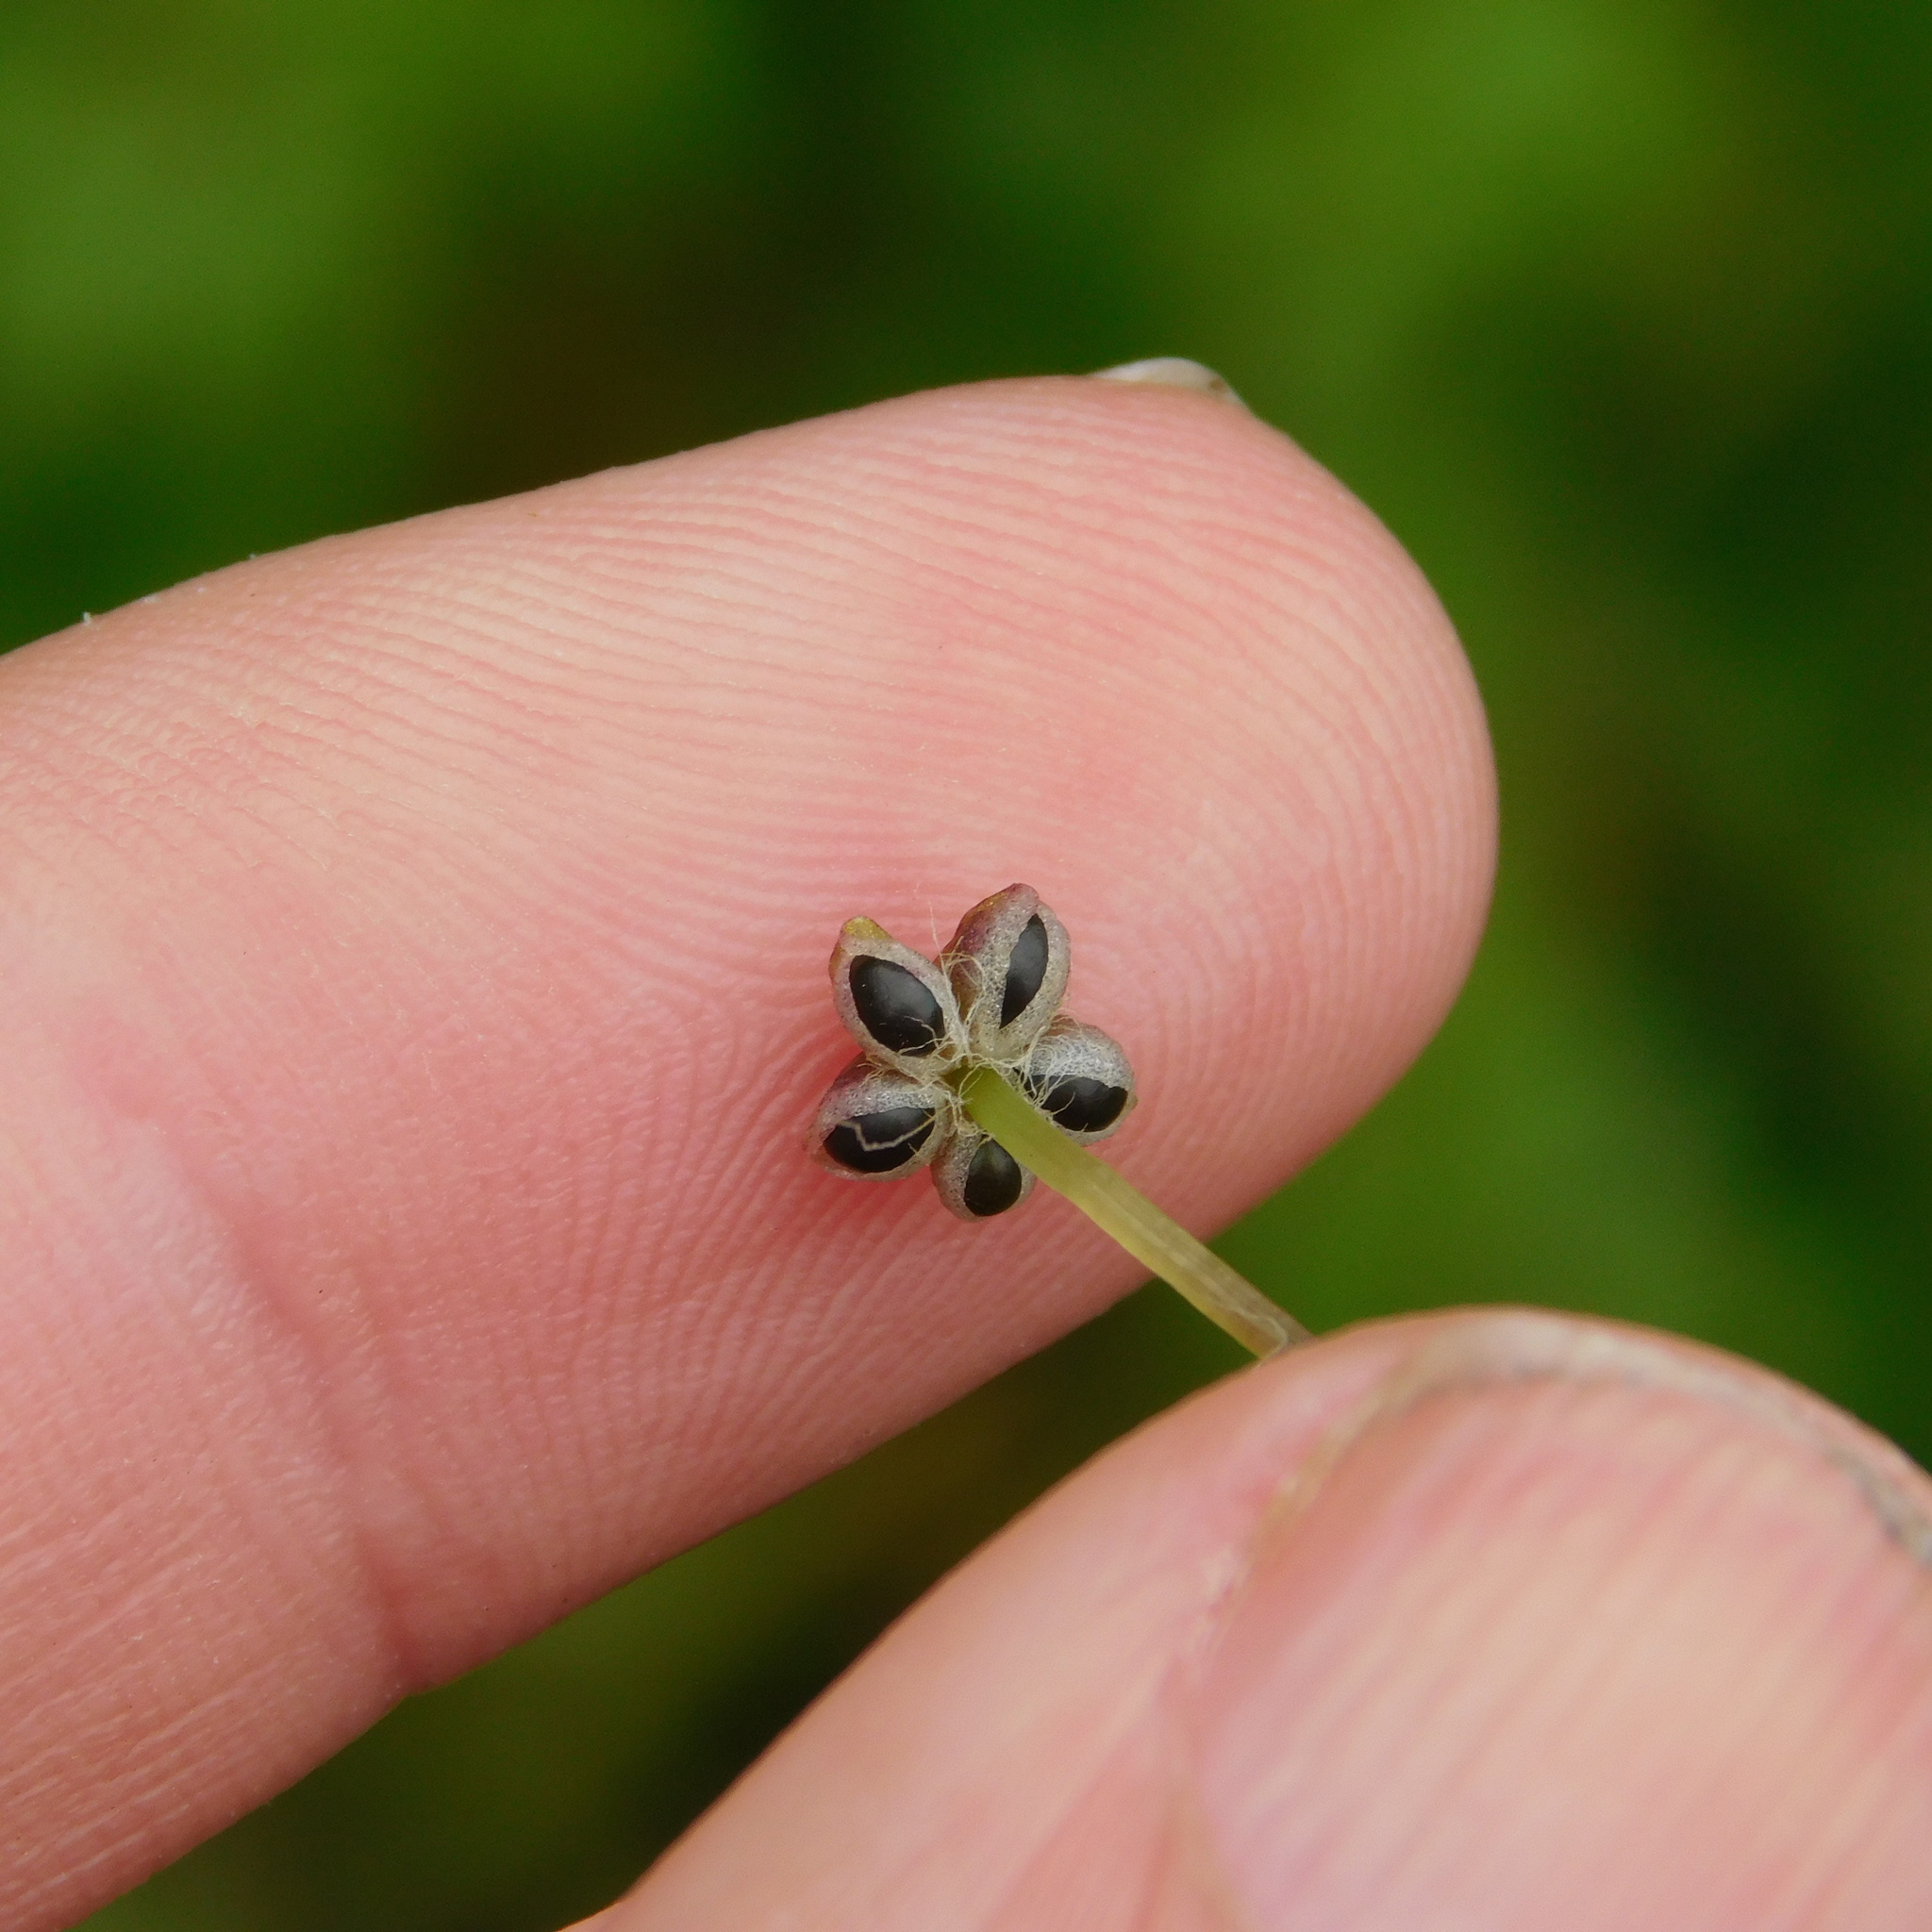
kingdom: Plantae
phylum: Marchantiophyta
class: Marchantiopsida
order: Marchantiales
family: Aytoniaceae
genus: Reboulia
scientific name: Reboulia hemisphaerica
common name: Purple-margined liverwort
